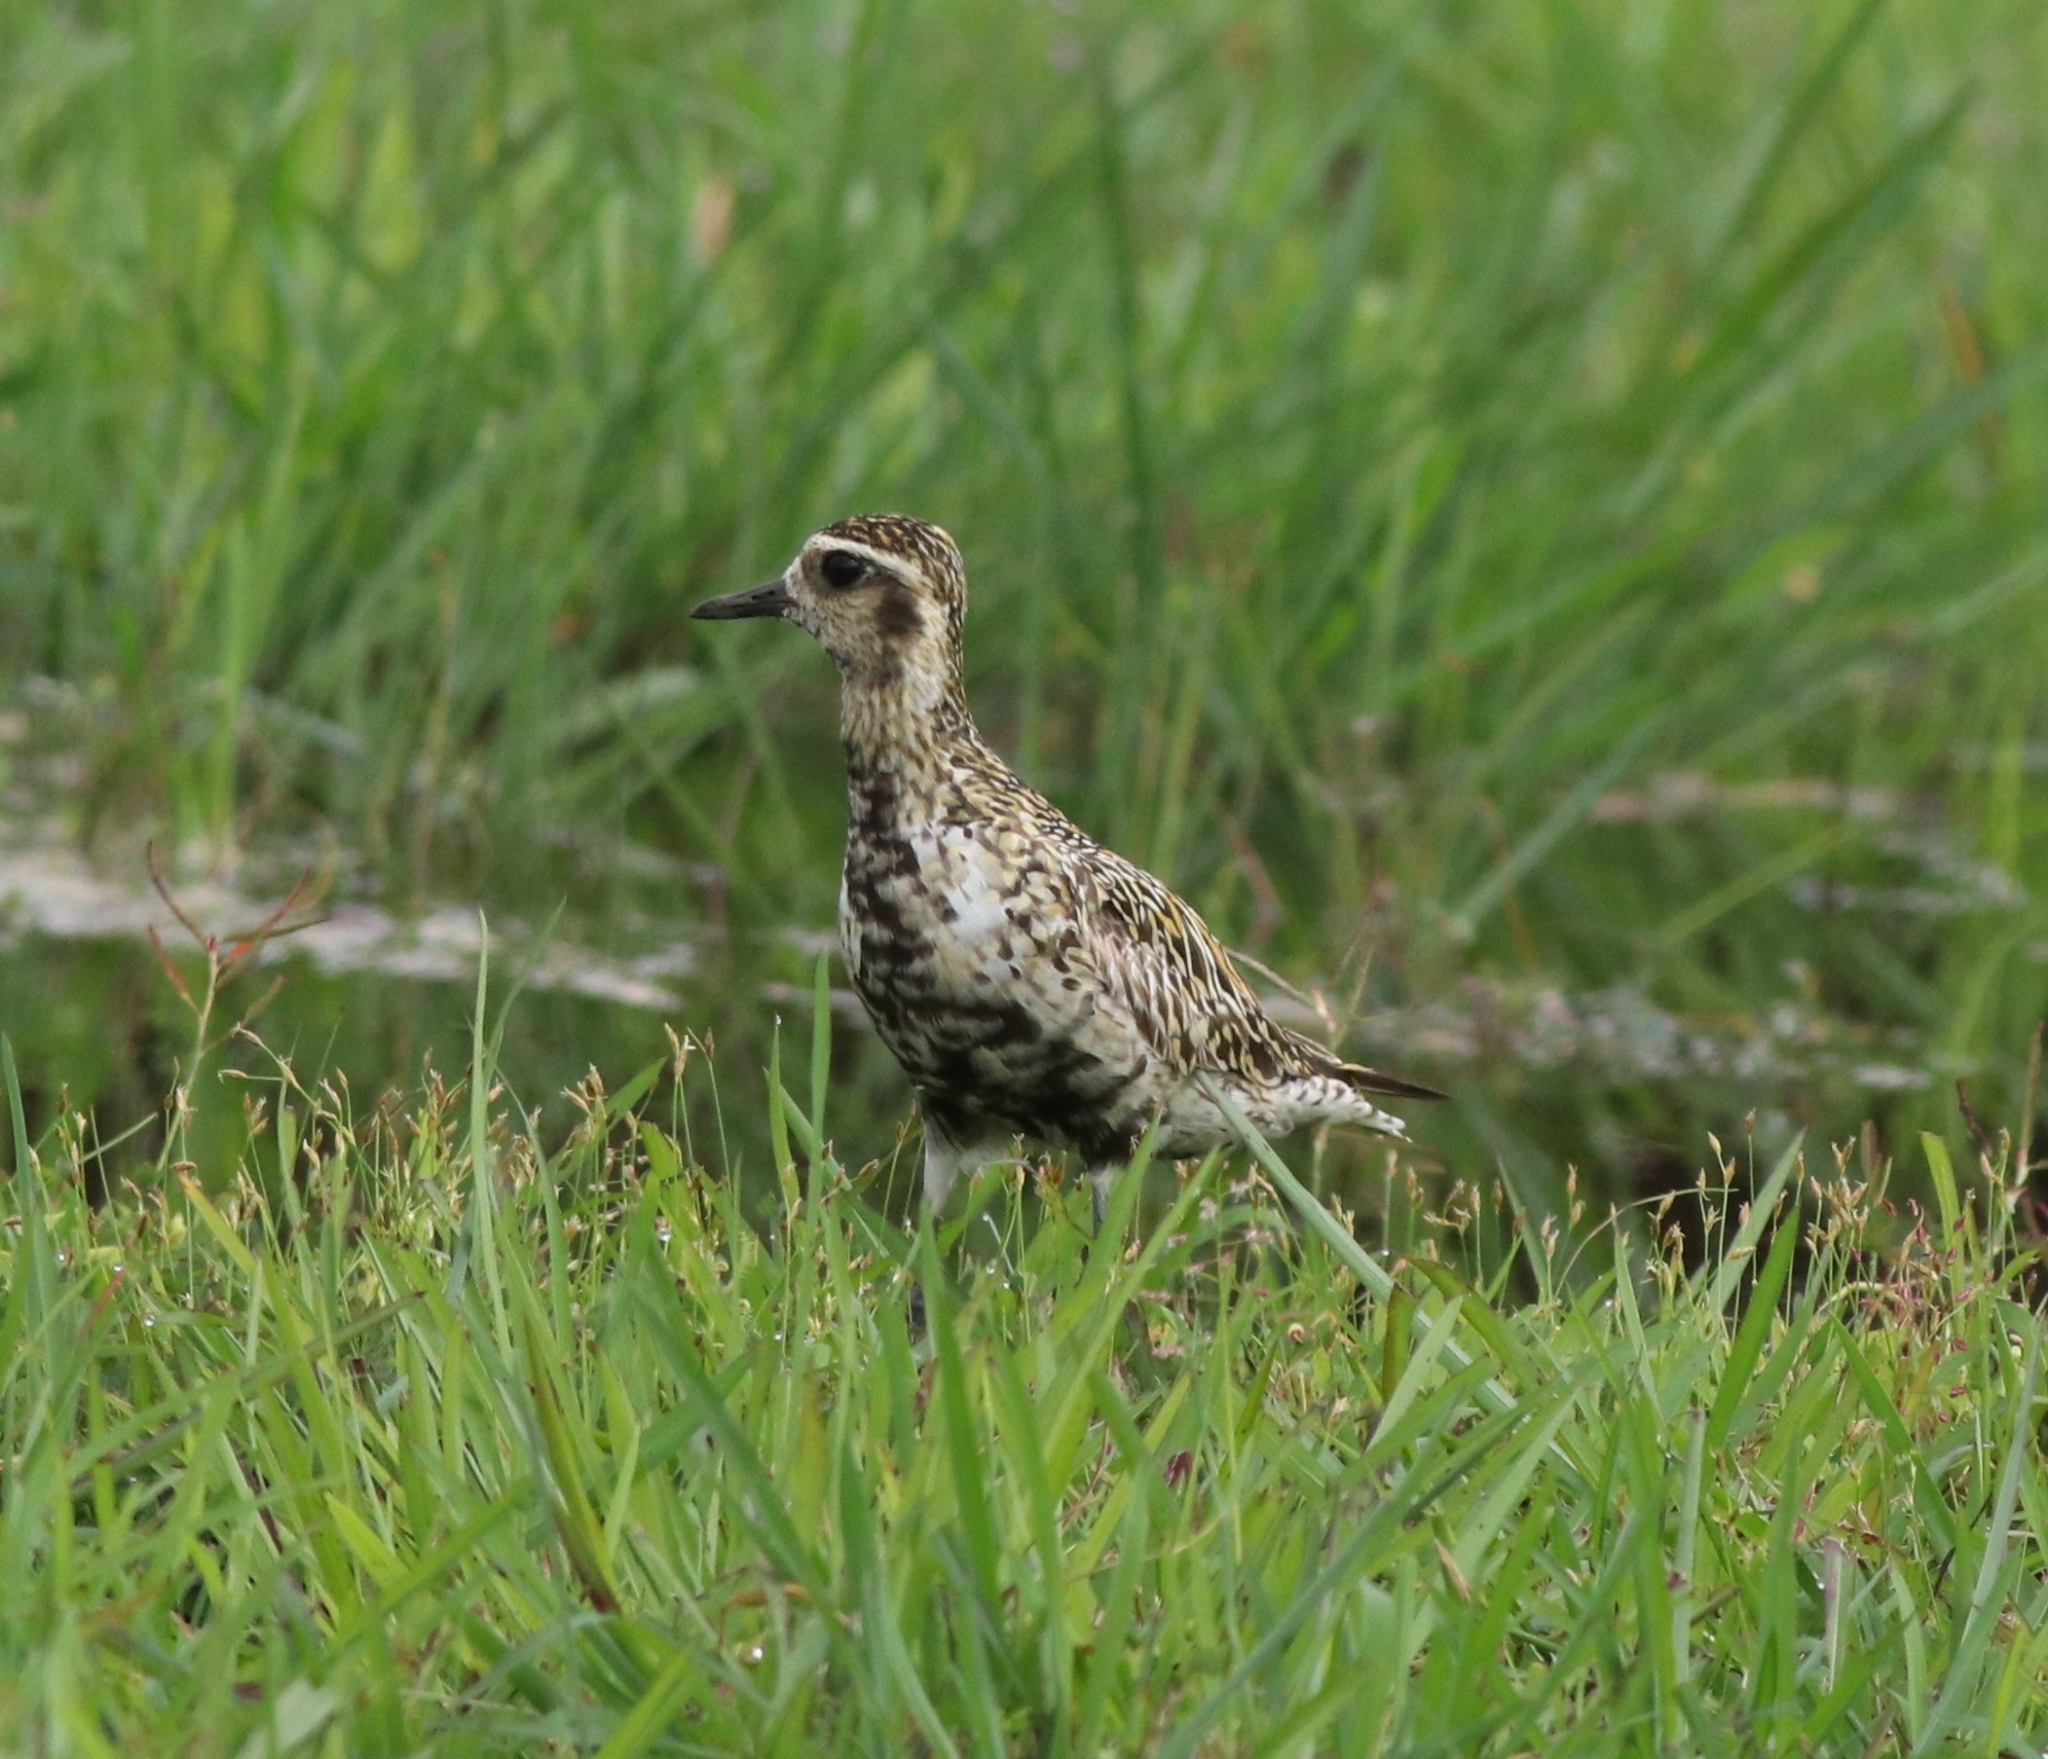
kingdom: Animalia
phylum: Chordata
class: Aves
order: Charadriiformes
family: Charadriidae
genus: Pluvialis
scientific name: Pluvialis fulva
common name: Pacific golden plover
